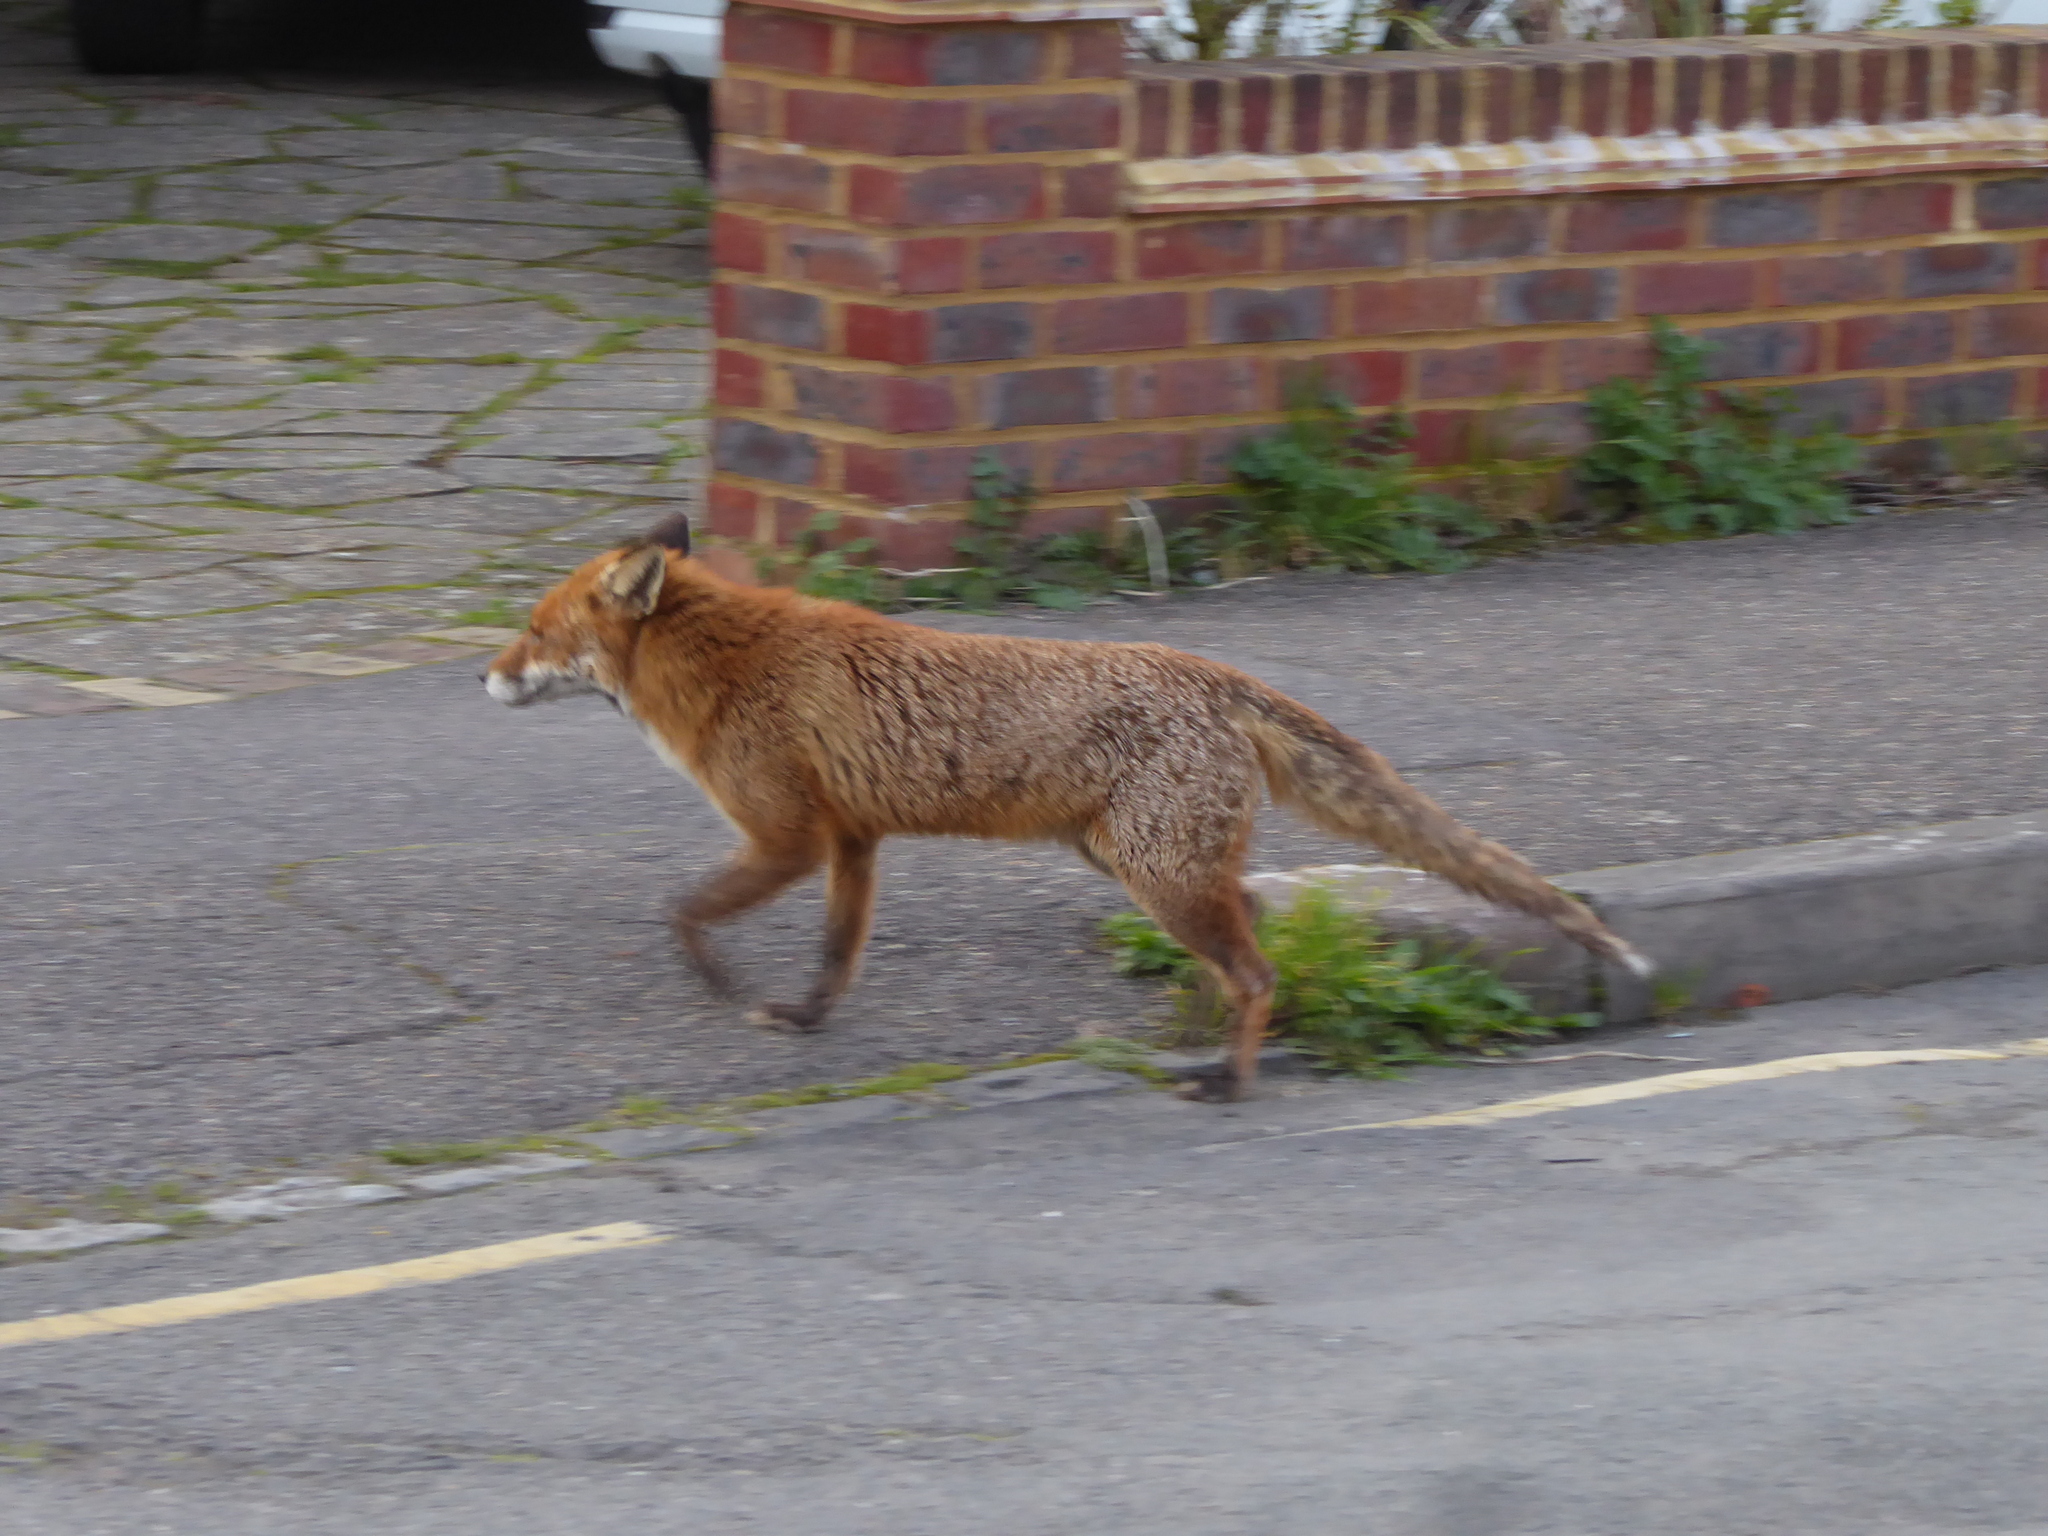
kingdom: Animalia
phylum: Chordata
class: Mammalia
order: Carnivora
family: Canidae
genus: Vulpes
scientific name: Vulpes vulpes
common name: Red fox
